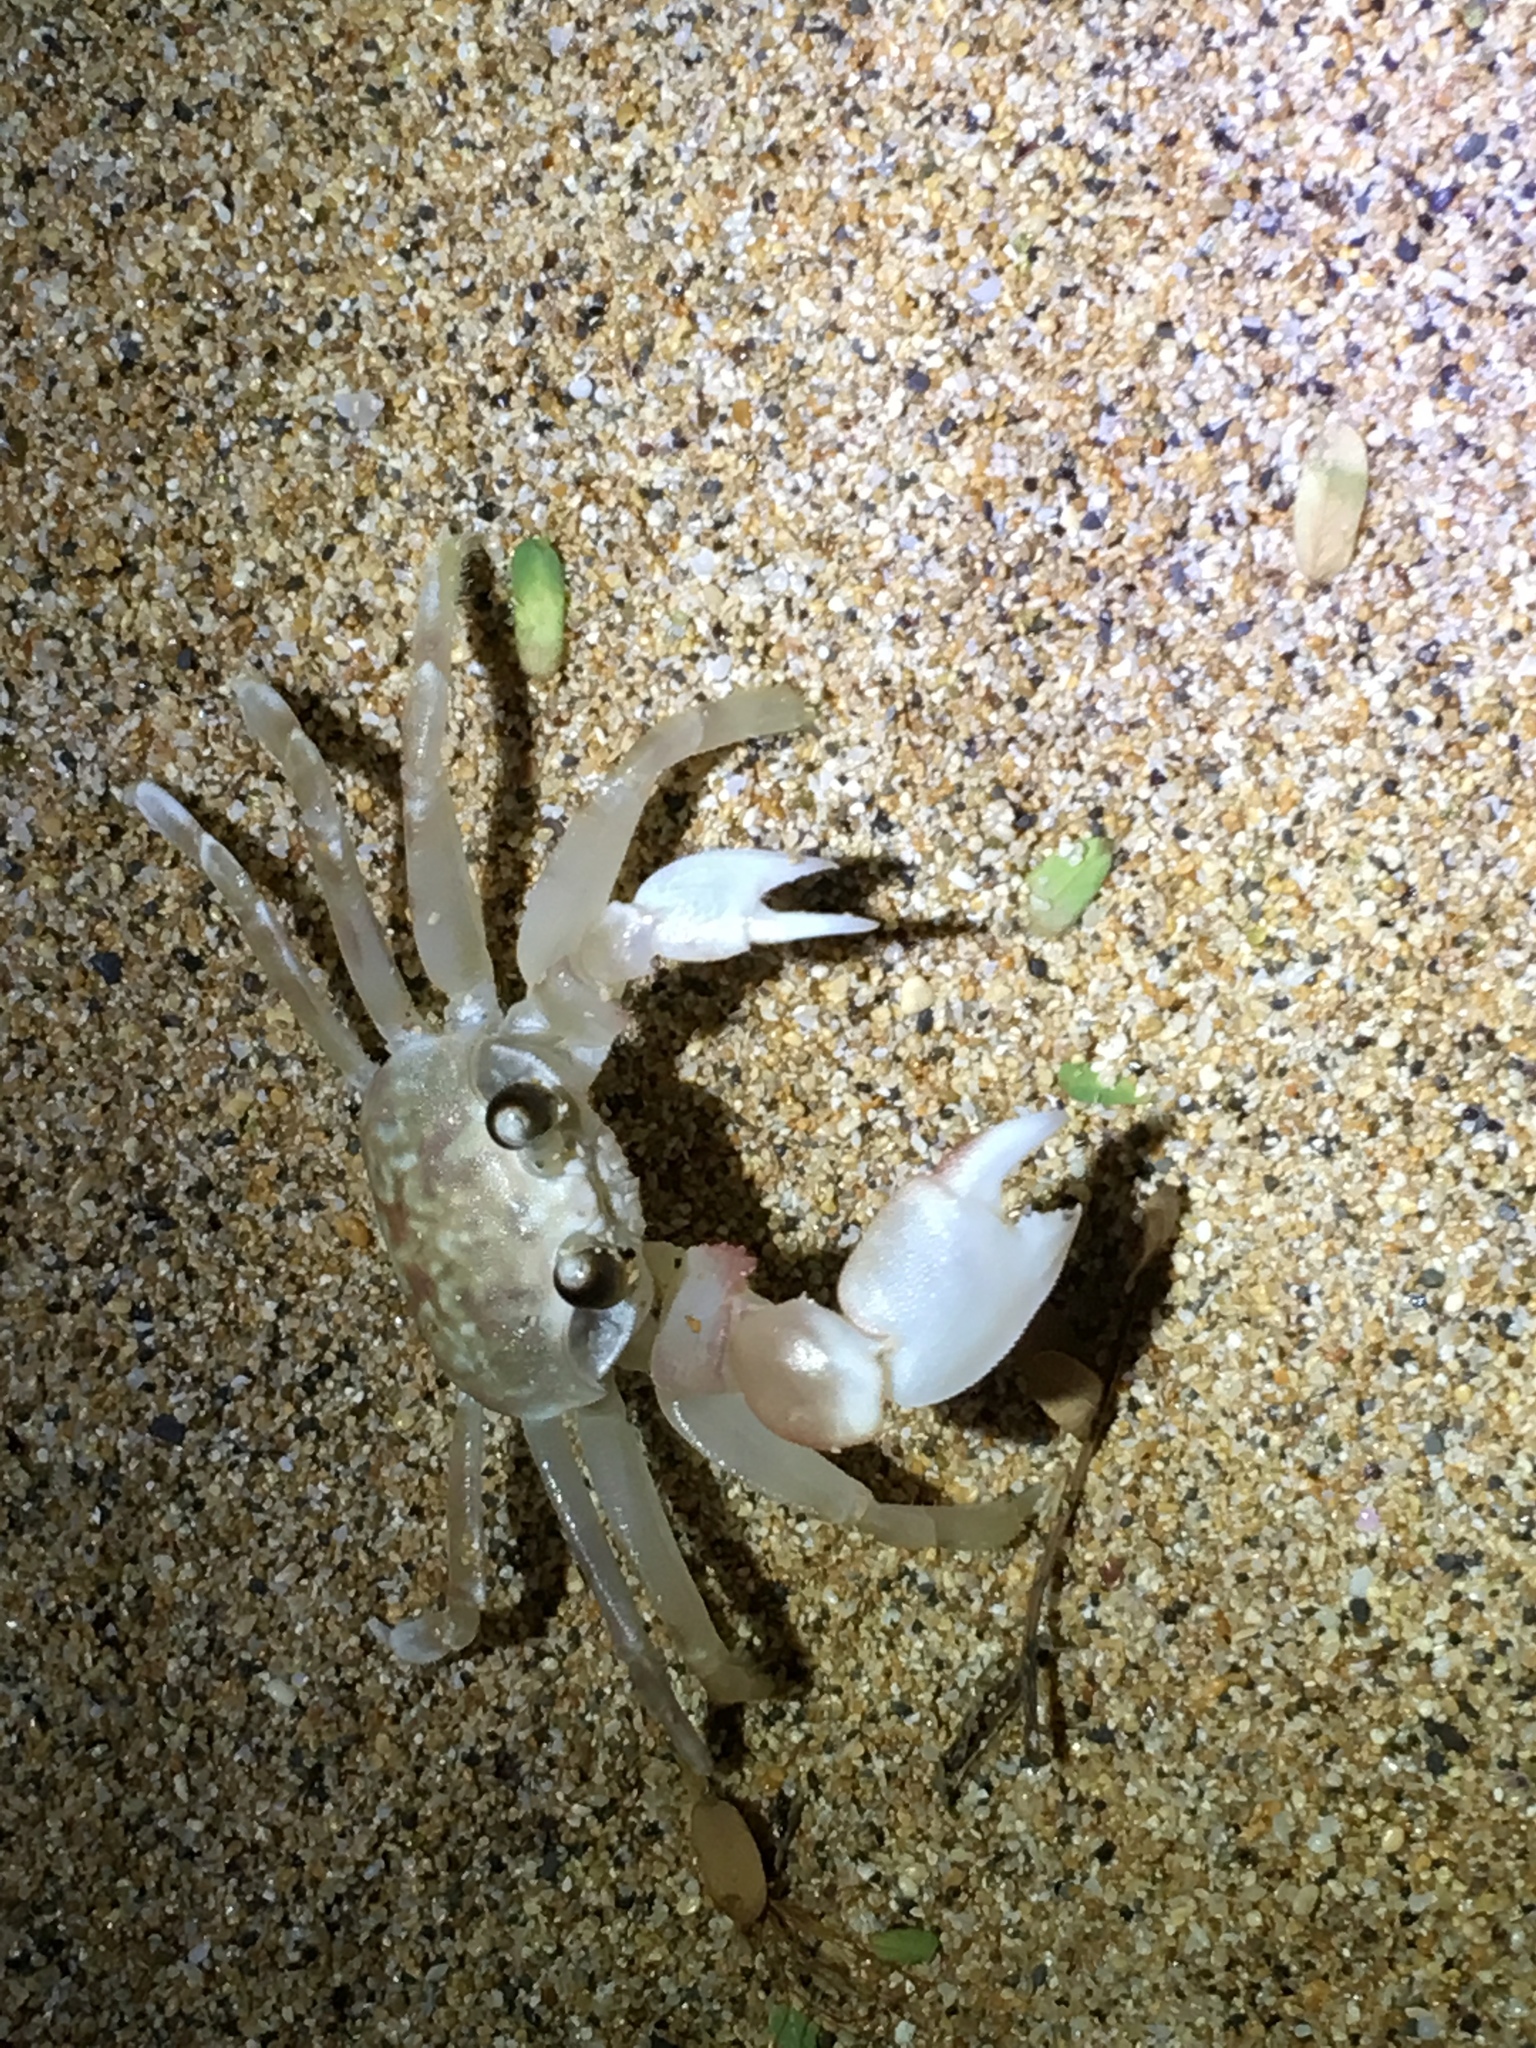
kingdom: Animalia
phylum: Arthropoda
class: Malacostraca
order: Decapoda
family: Ocypodidae
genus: Ocypode
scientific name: Ocypode pallidula
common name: Pallid ghost crab
